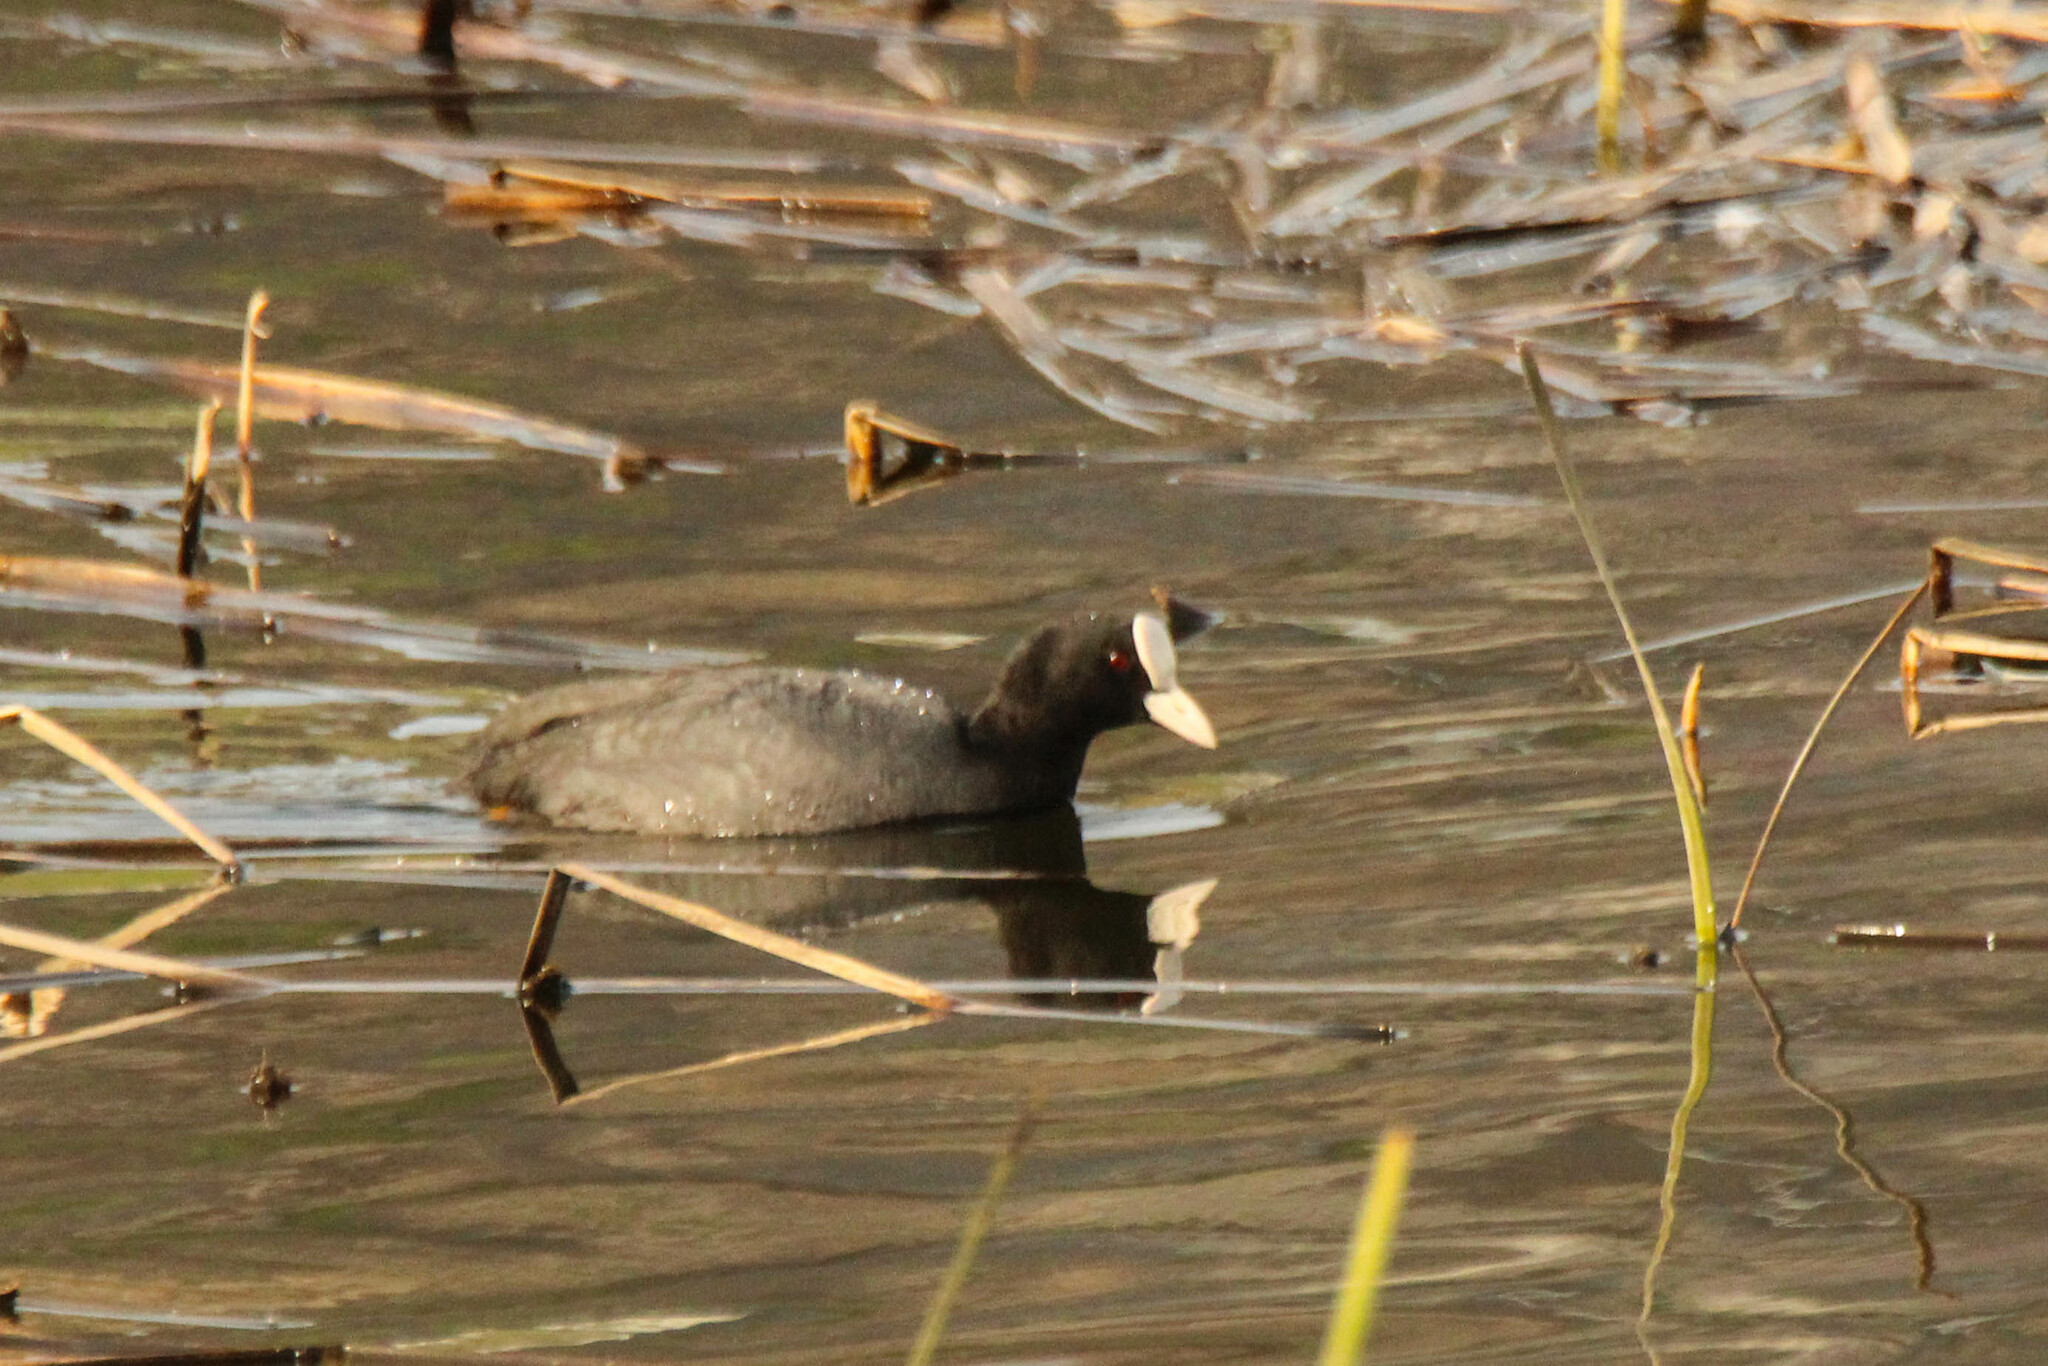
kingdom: Animalia
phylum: Chordata
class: Aves
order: Gruiformes
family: Rallidae
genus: Fulica
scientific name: Fulica atra
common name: Eurasian coot
